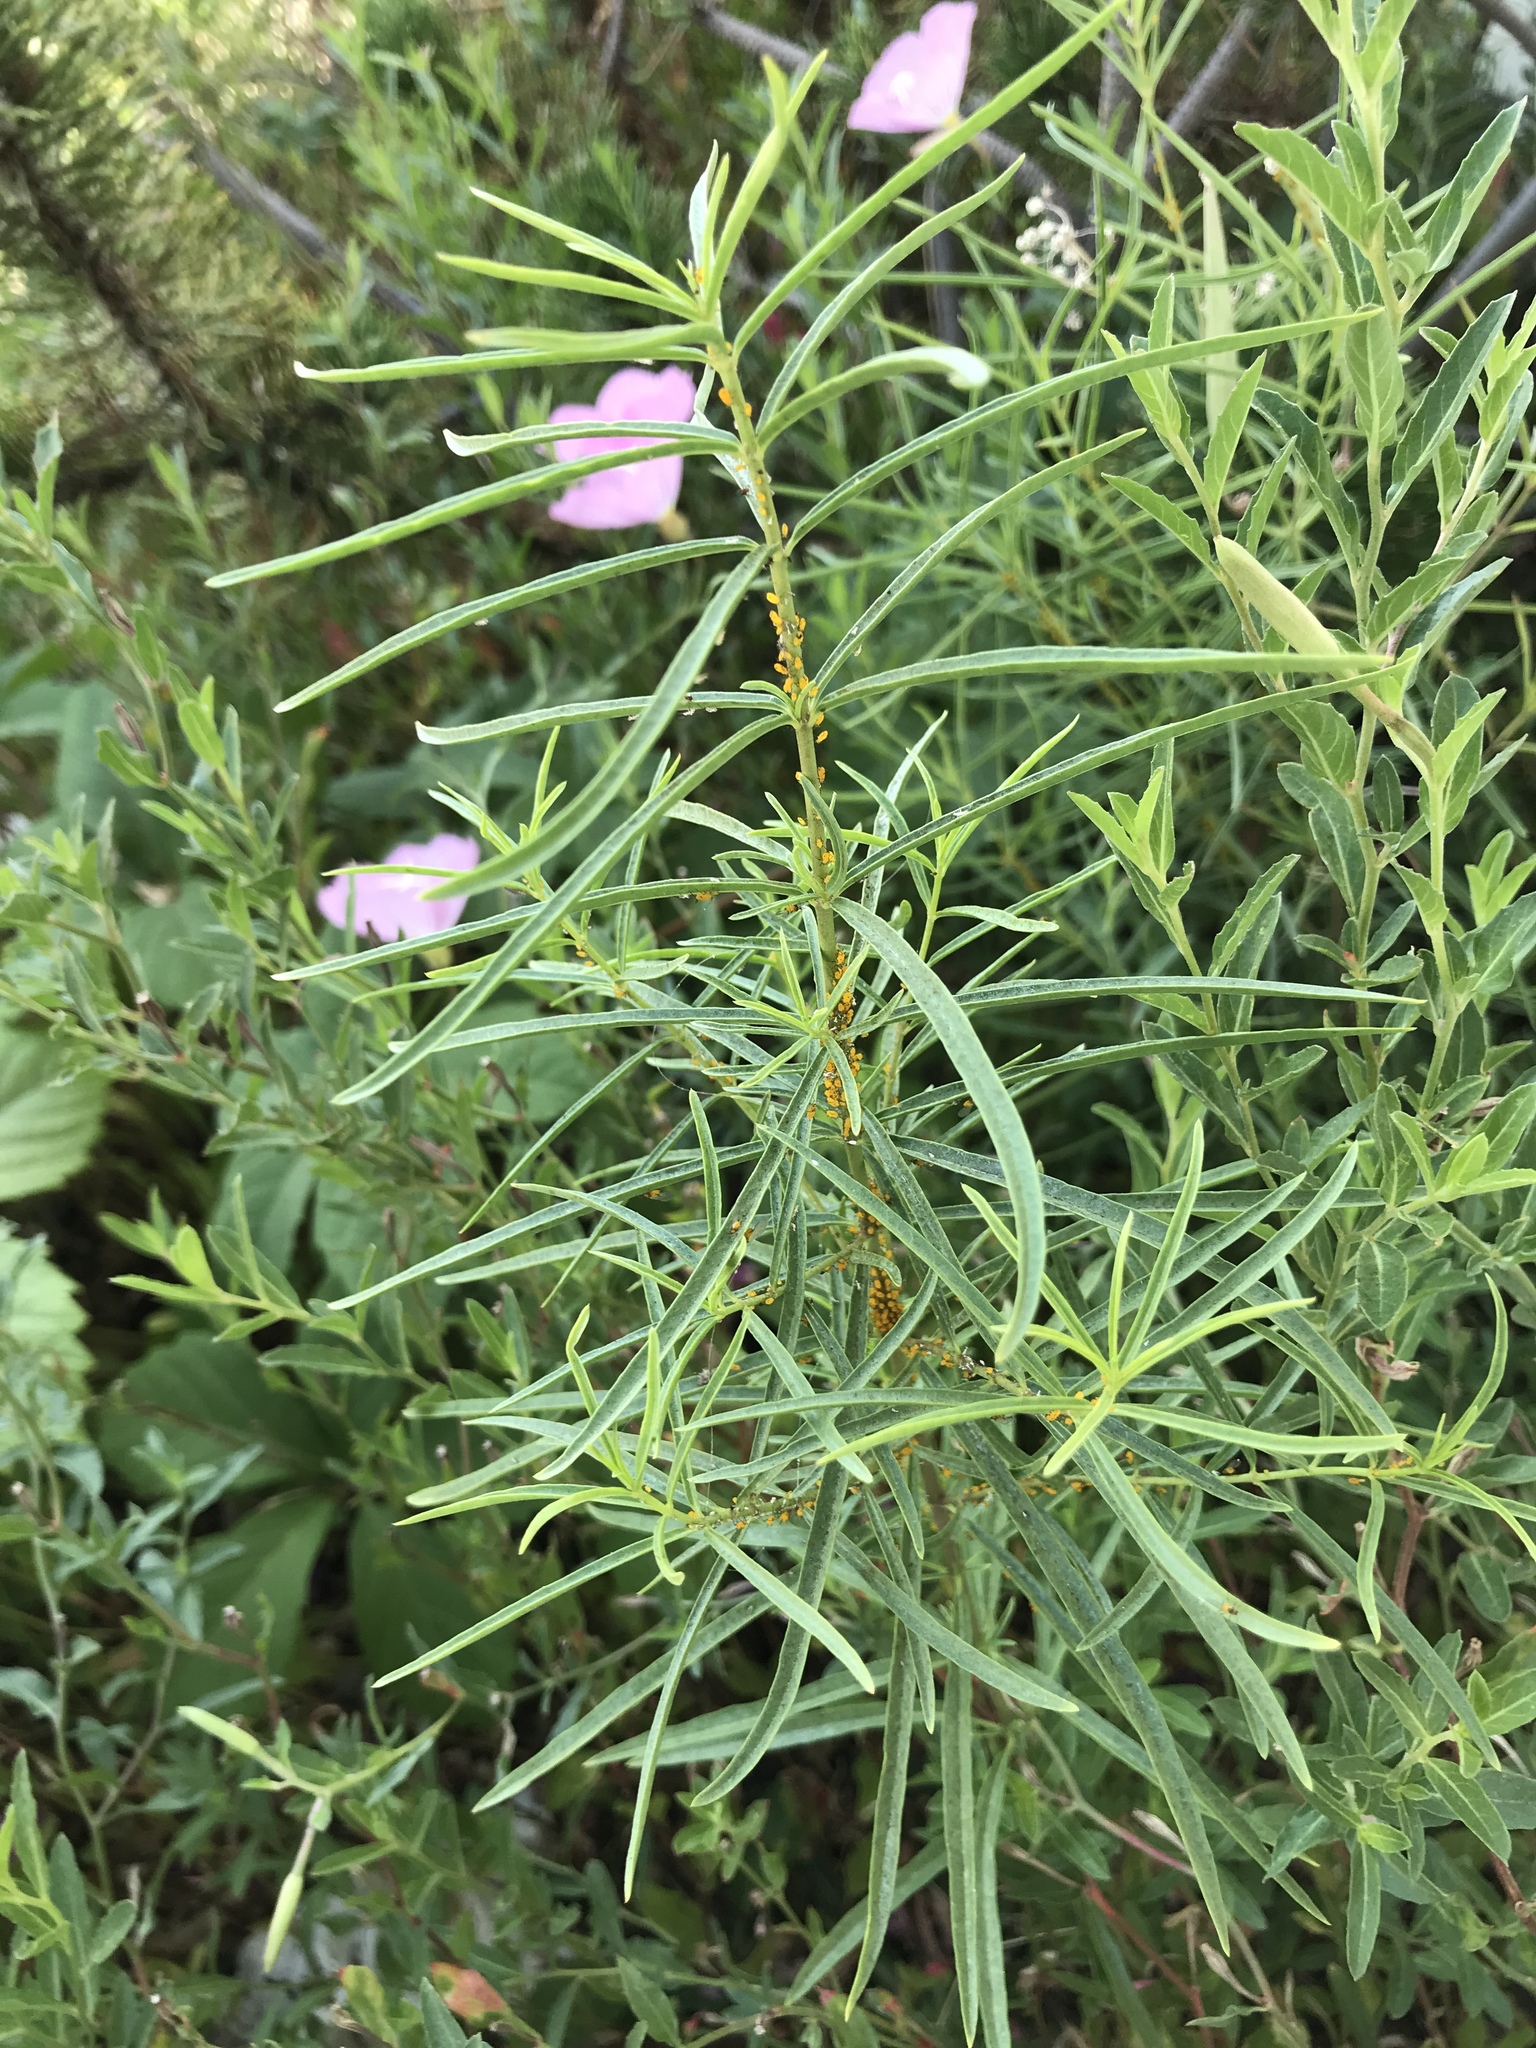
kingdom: Plantae
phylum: Tracheophyta
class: Magnoliopsida
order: Gentianales
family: Apocynaceae
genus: Asclepias
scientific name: Asclepias fascicularis
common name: Mexican milkweed
